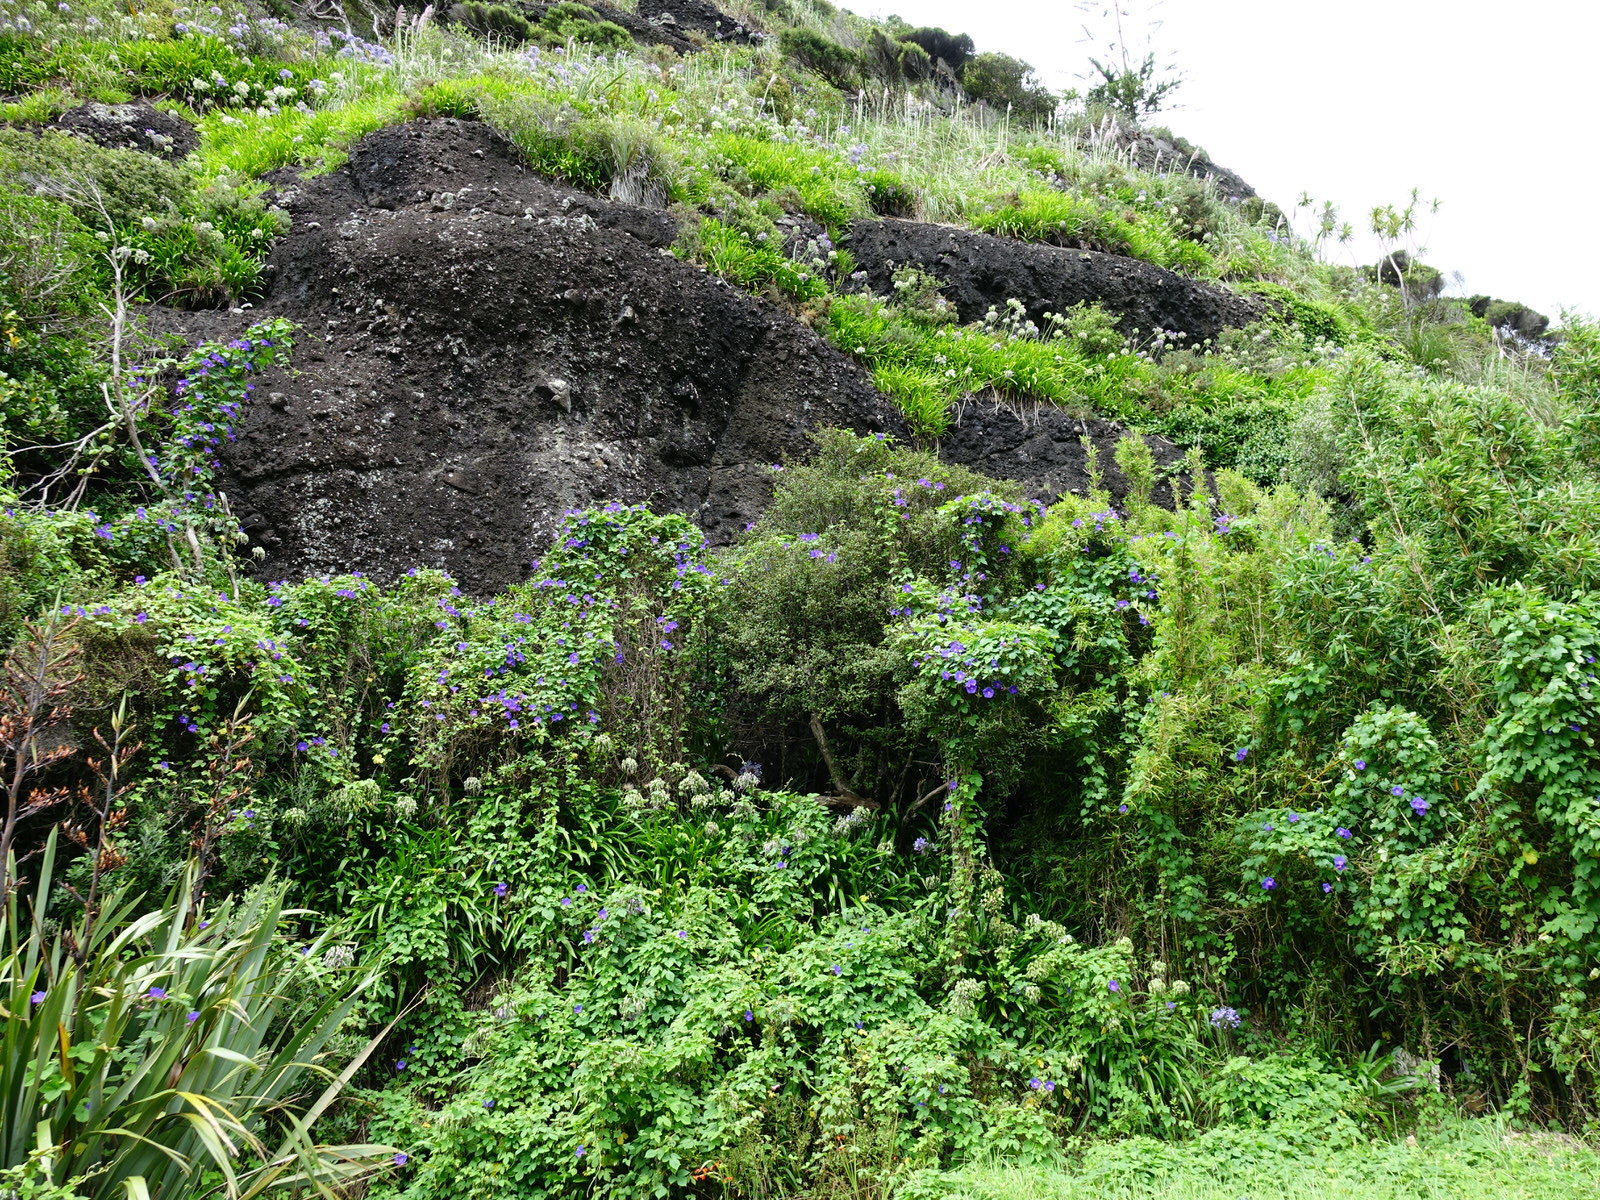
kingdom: Plantae
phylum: Tracheophyta
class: Magnoliopsida
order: Solanales
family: Convolvulaceae
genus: Ipomoea
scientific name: Ipomoea indica
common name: Blue dawnflower
